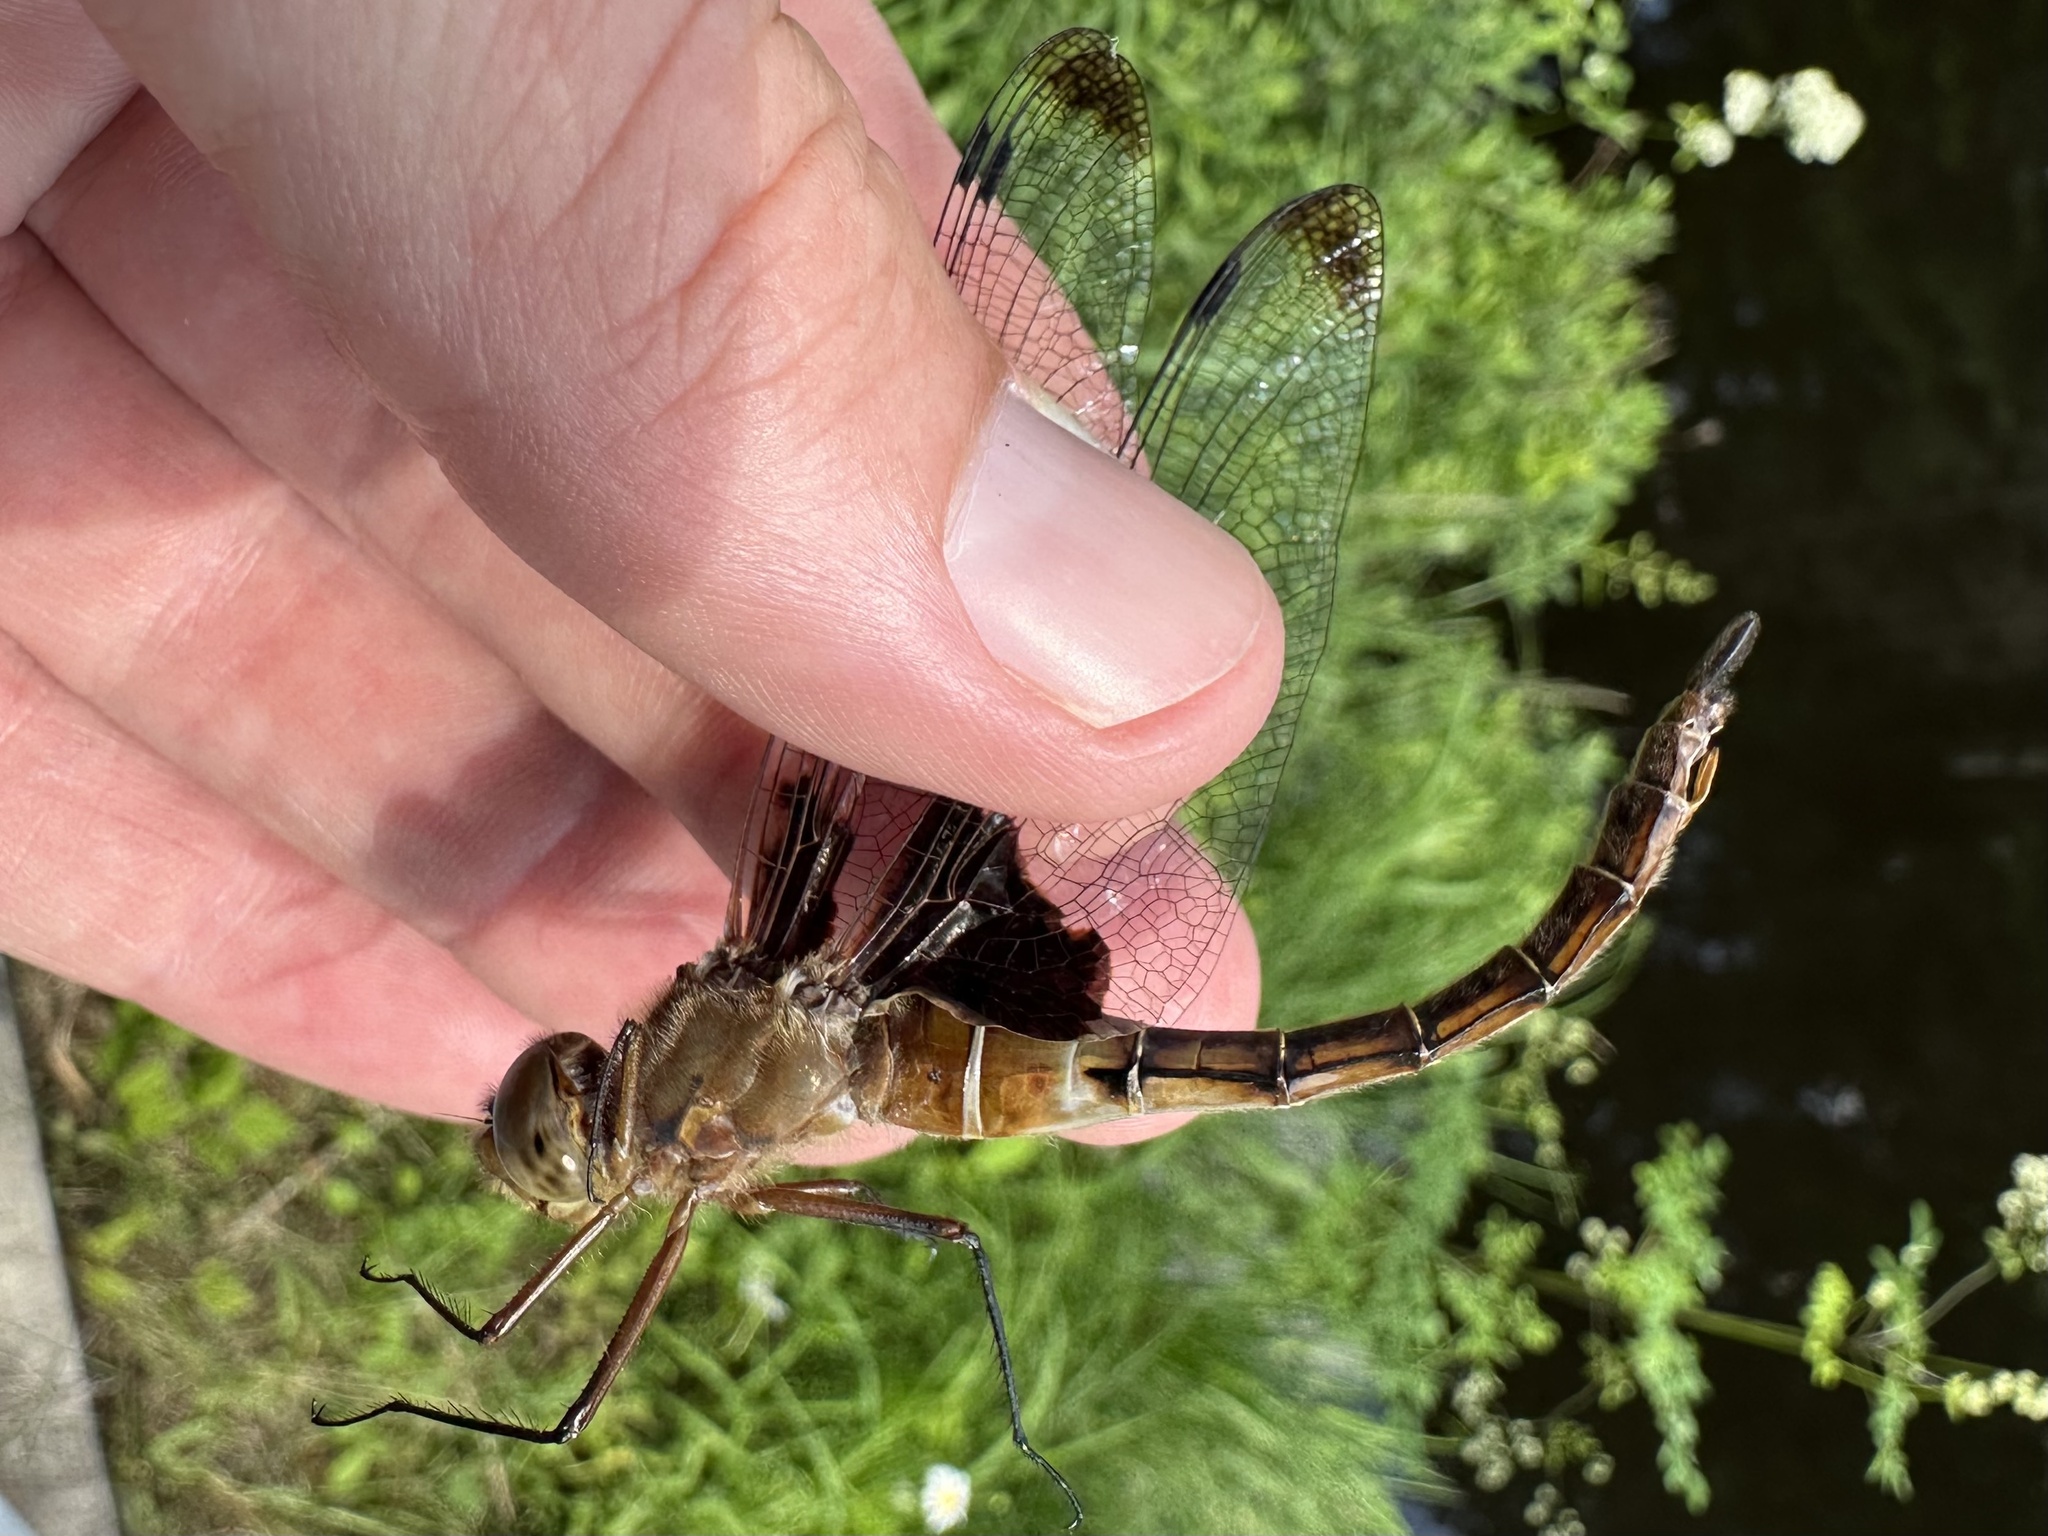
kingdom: Animalia
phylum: Arthropoda
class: Insecta
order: Odonata
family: Corduliidae
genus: Epitheca
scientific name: Epitheca princeps
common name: Prince baskettail
